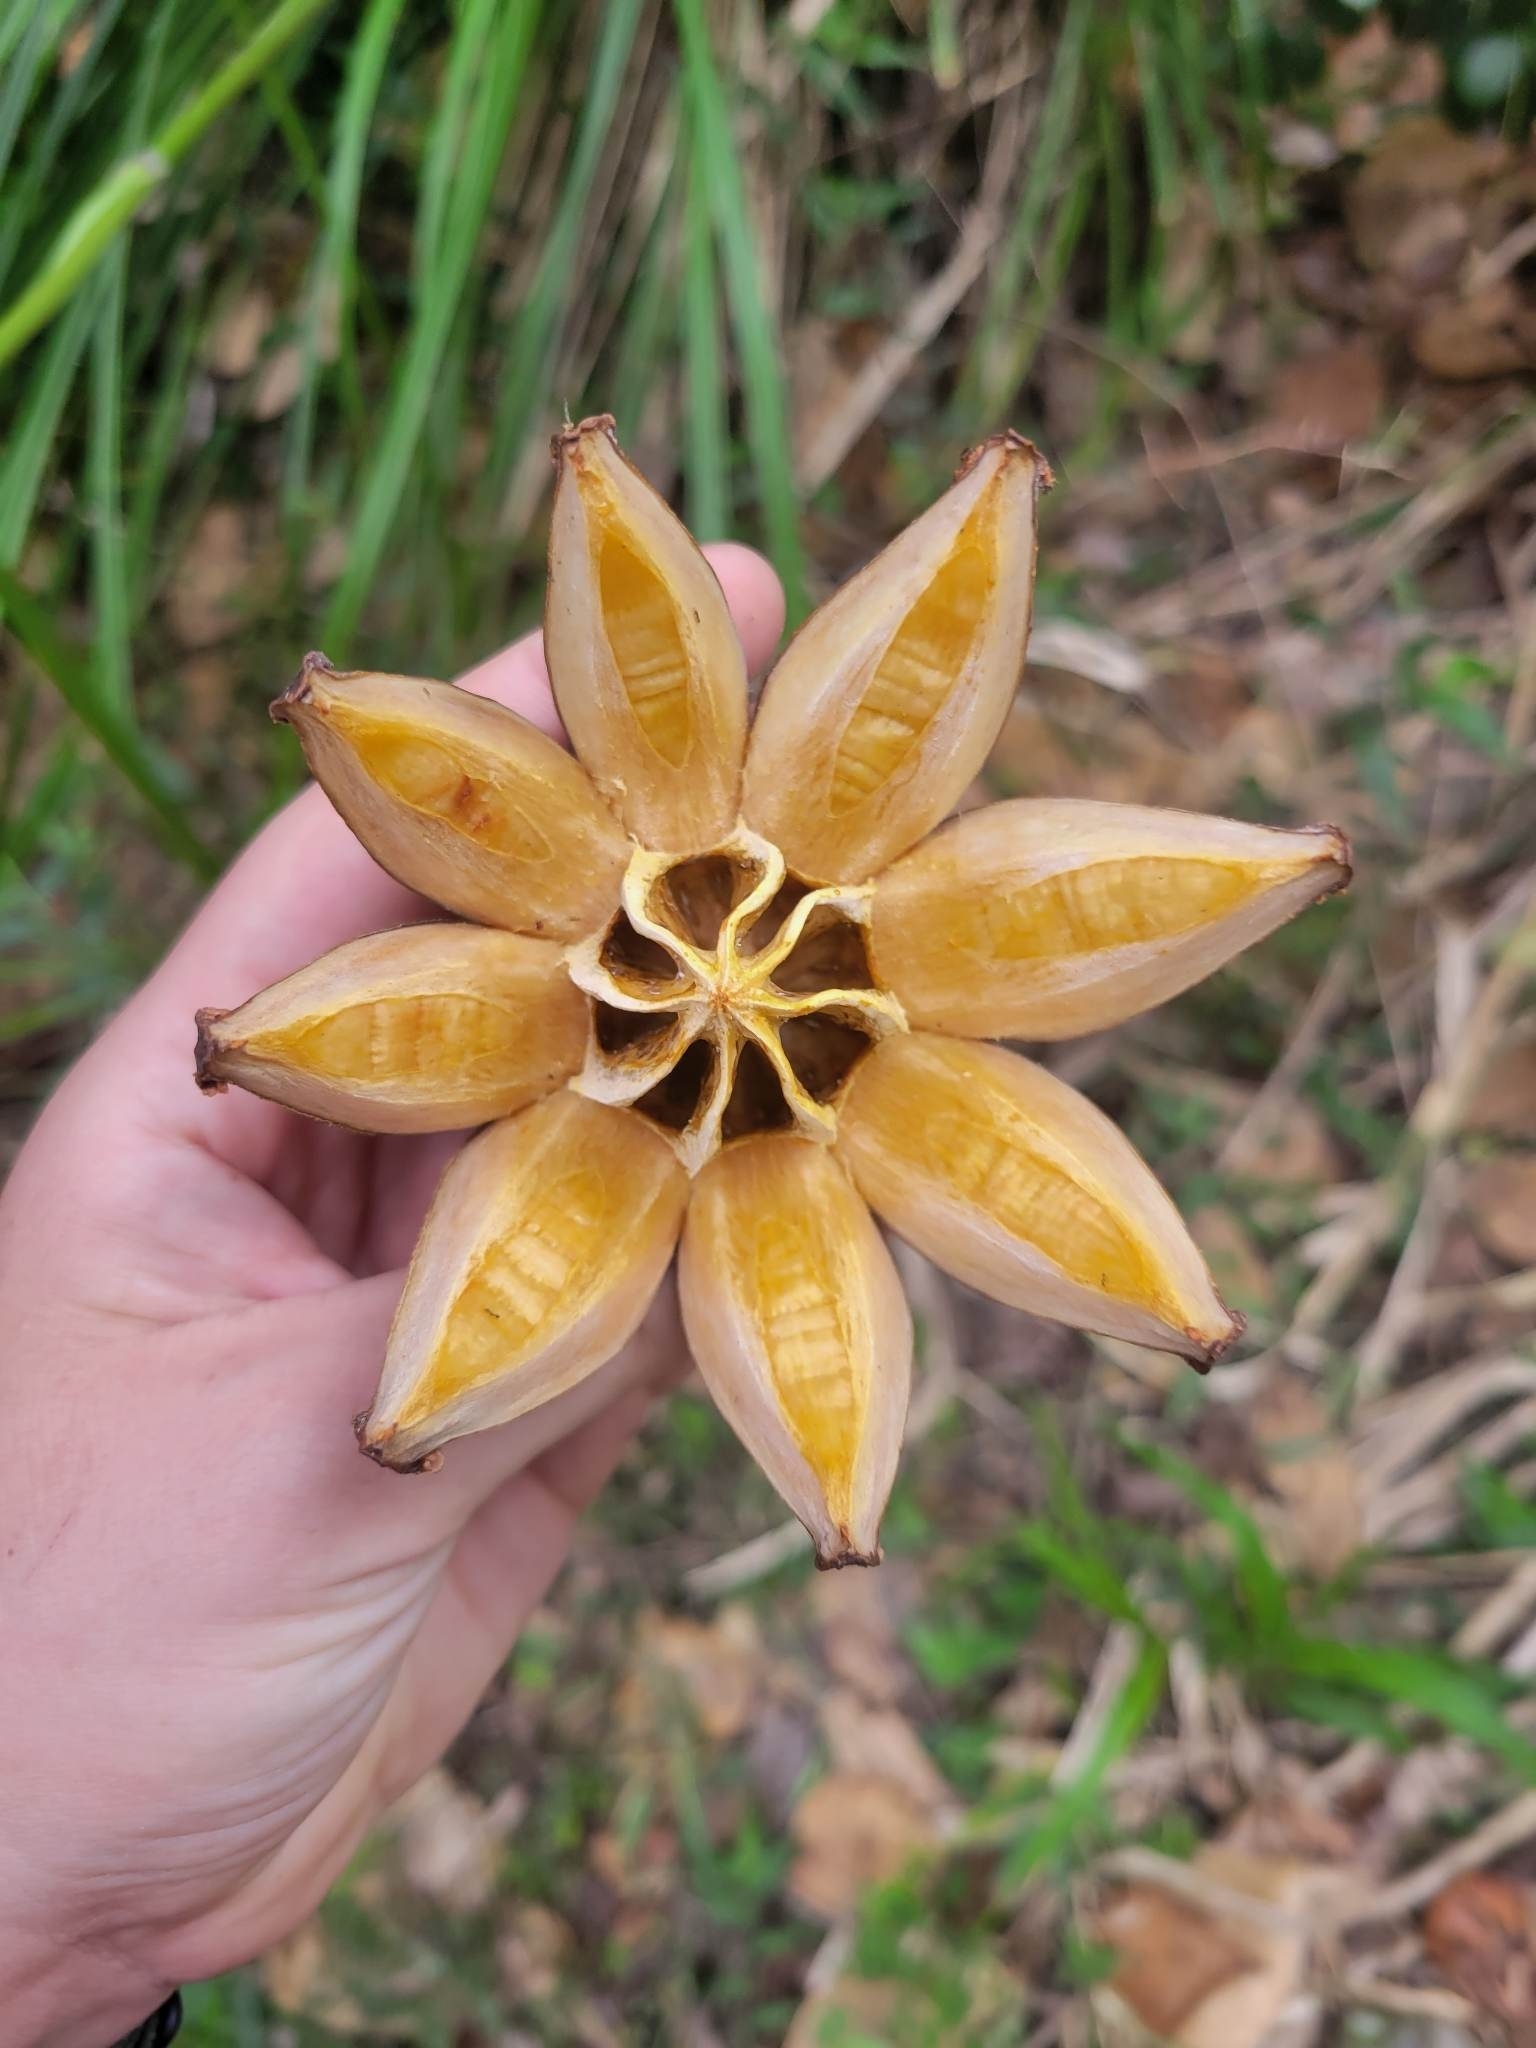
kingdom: Plantae
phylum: Tracheophyta
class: Magnoliopsida
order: Malpighiales
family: Clusiaceae
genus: Clusia
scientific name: Clusia rosea
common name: Scotch attorney
